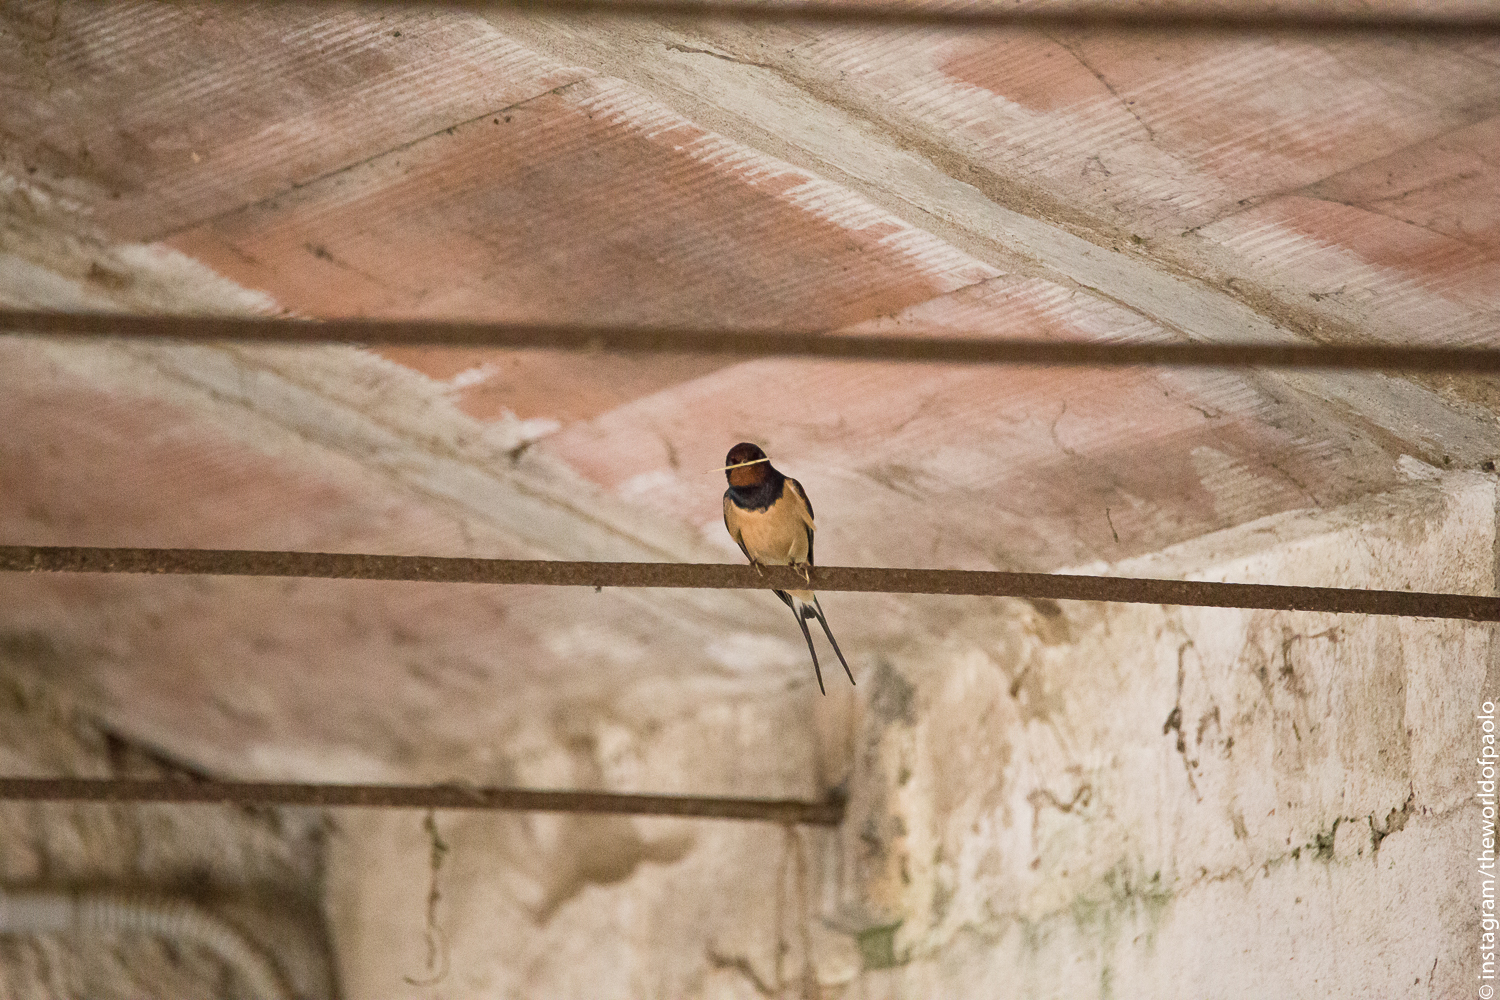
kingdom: Animalia
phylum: Chordata
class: Aves
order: Passeriformes
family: Hirundinidae
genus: Hirundo
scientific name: Hirundo rustica
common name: Barn swallow
